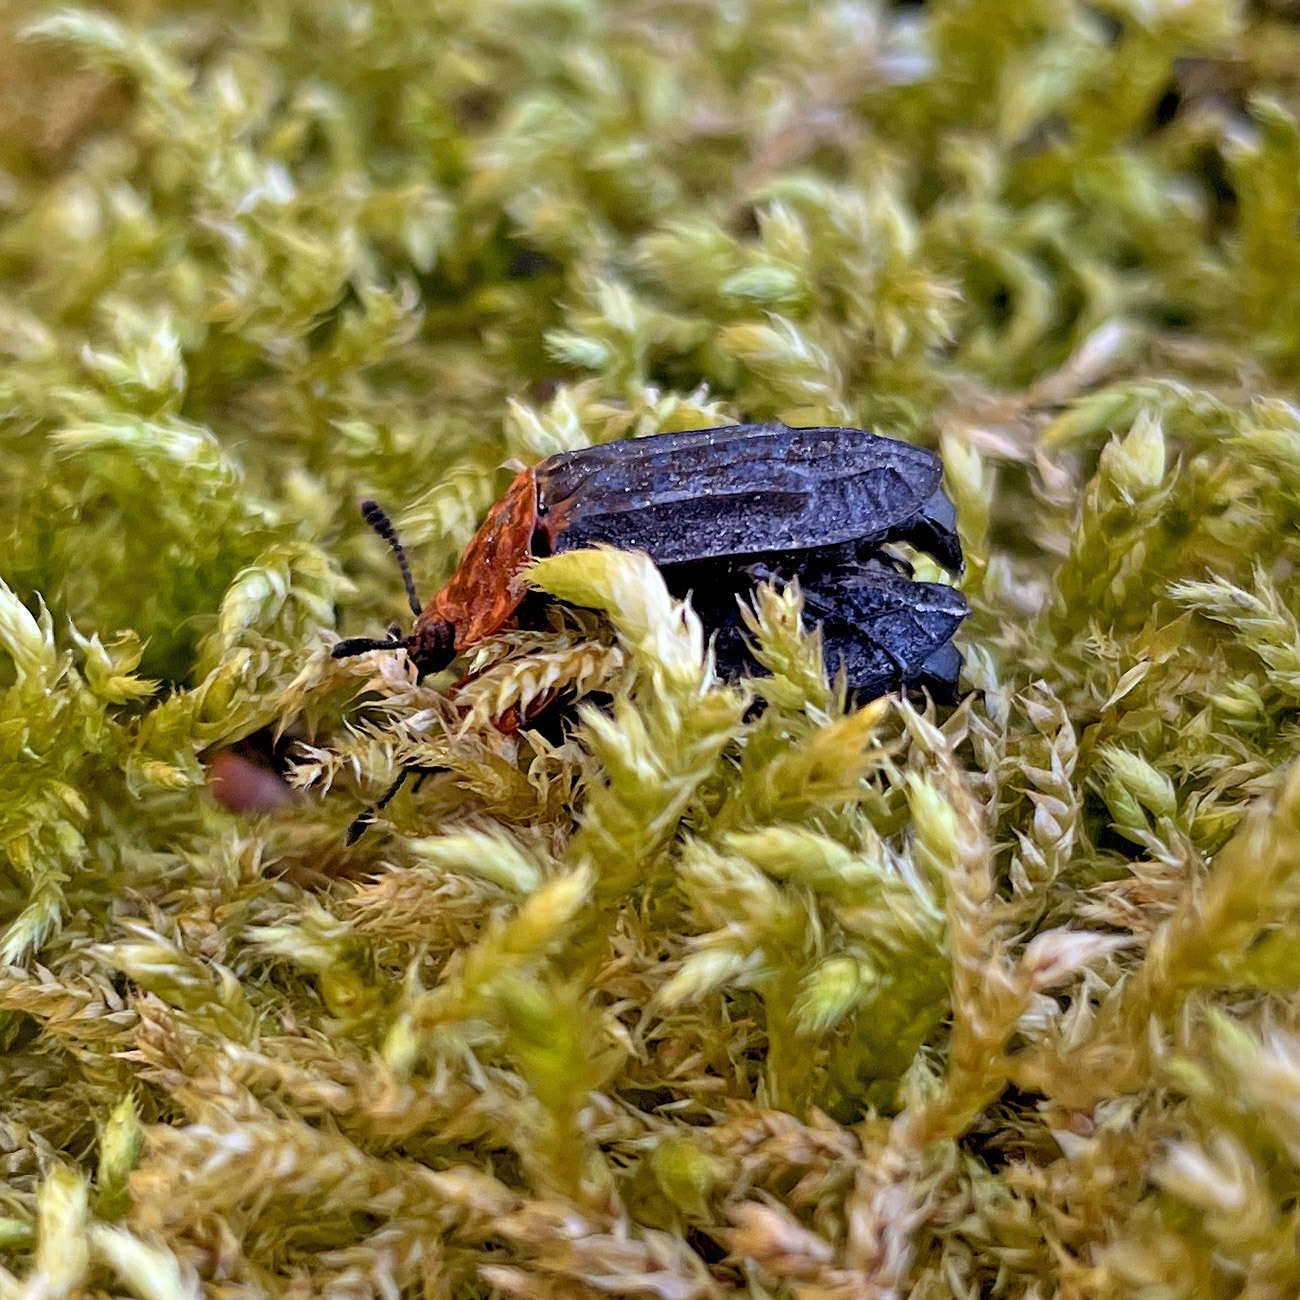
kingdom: Animalia
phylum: Arthropoda
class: Insecta
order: Coleoptera
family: Staphylinidae
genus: Oiceoptoma
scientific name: Oiceoptoma thoracicum
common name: Red-breasted carrion beetle
